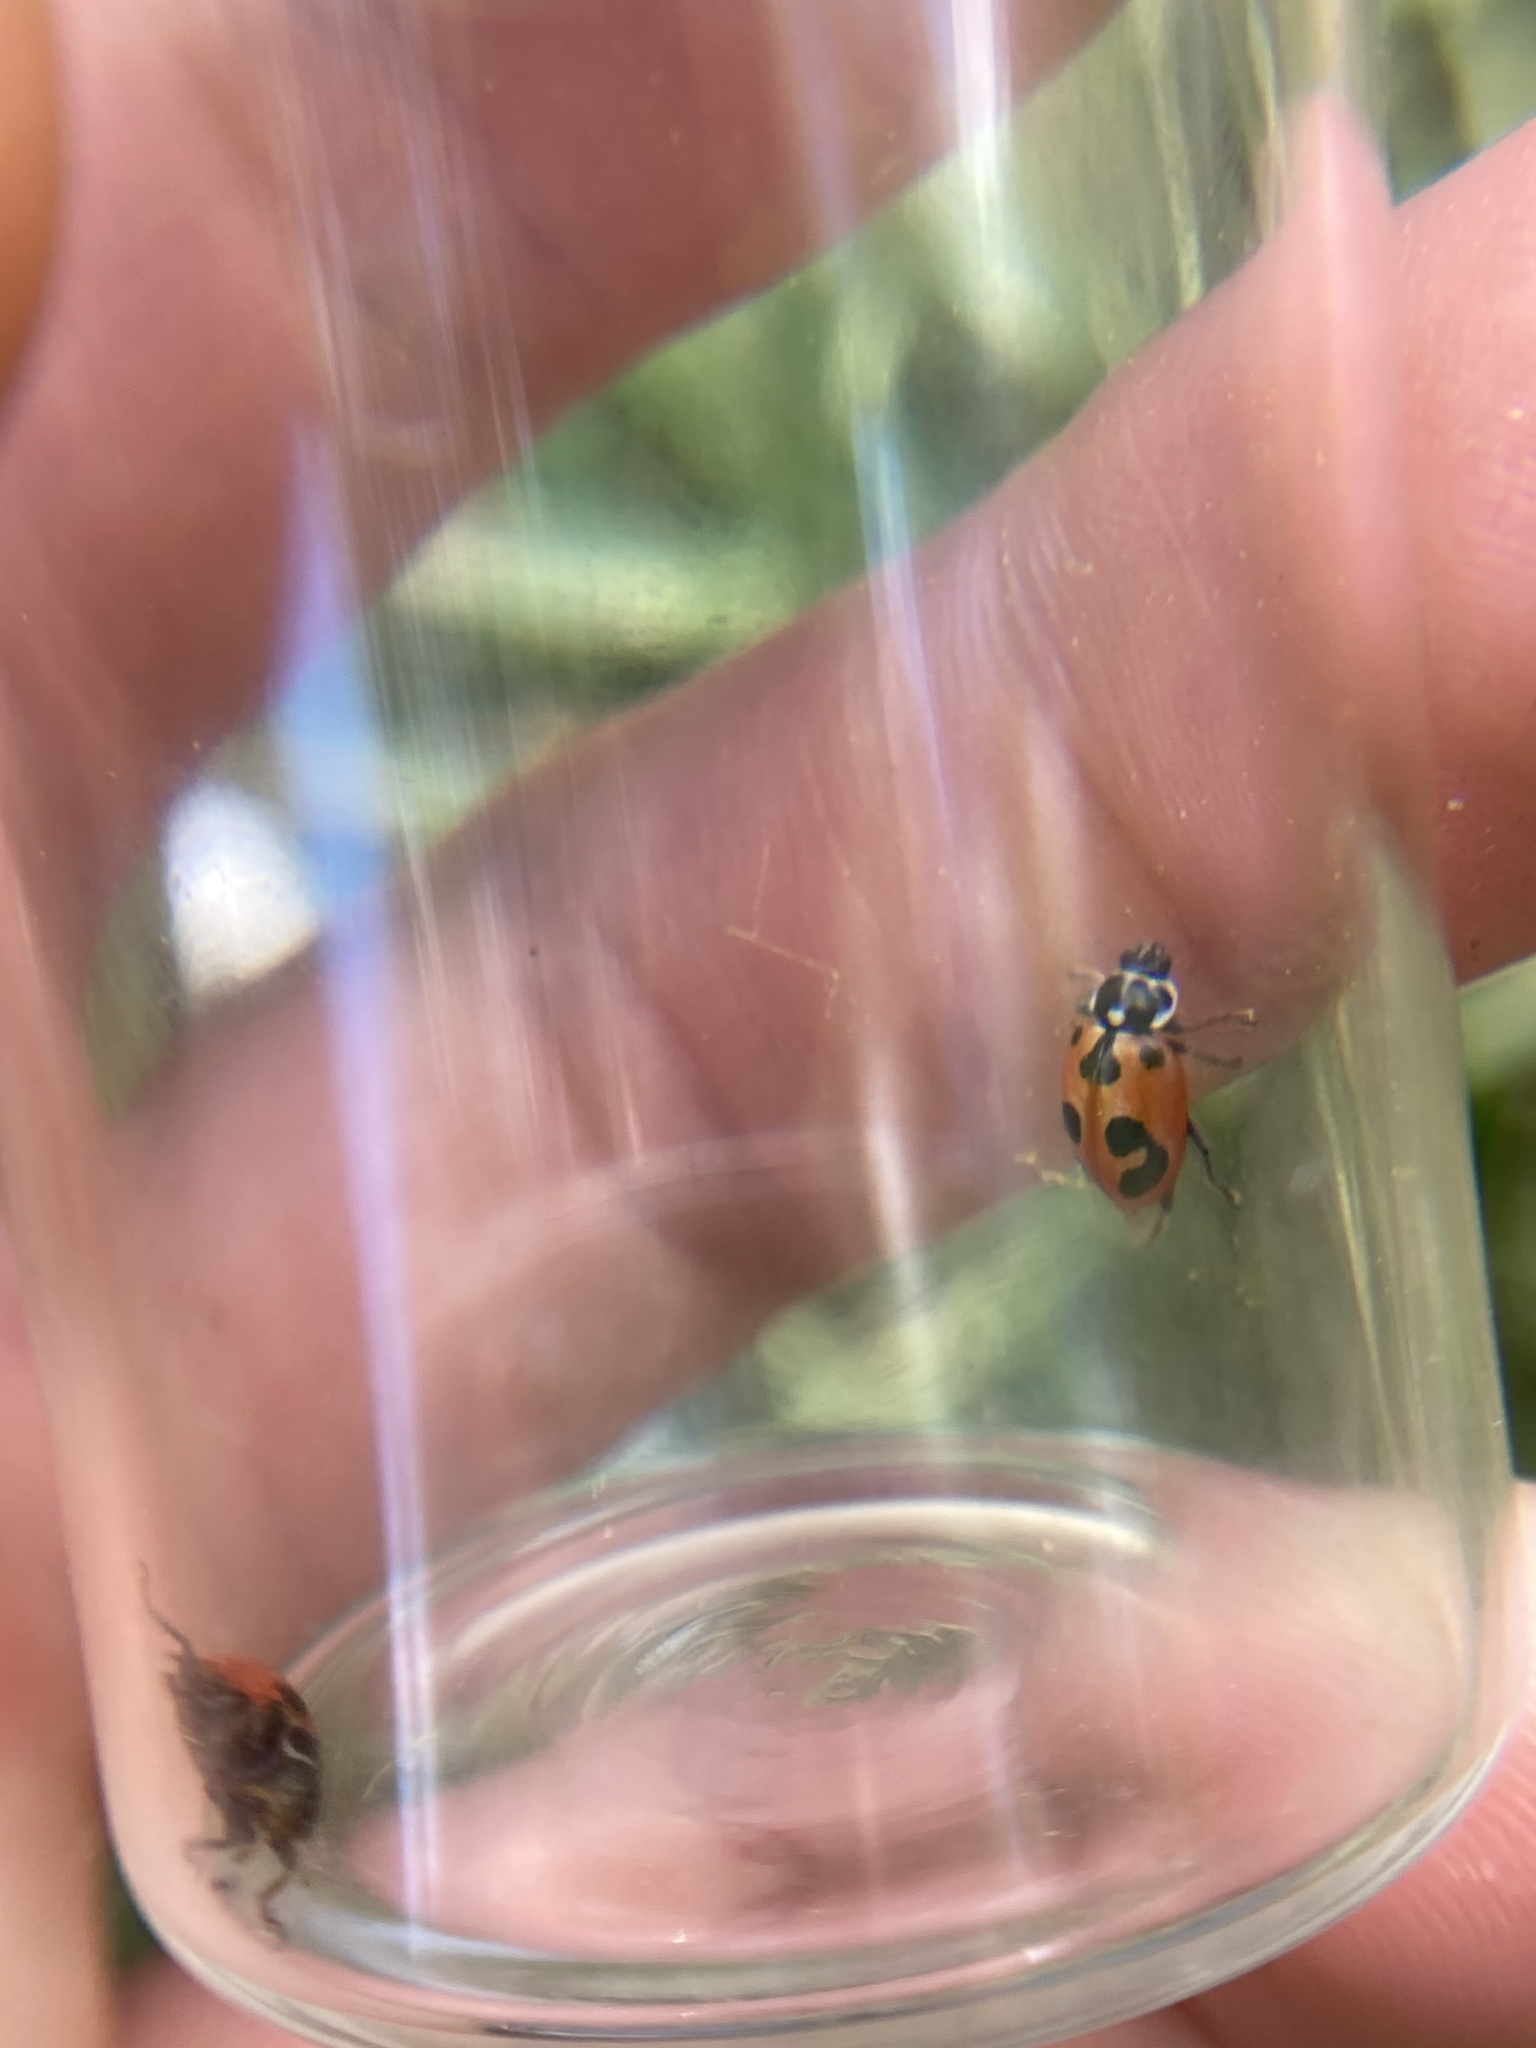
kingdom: Animalia
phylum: Arthropoda
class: Insecta
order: Coleoptera
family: Coccinellidae
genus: Hippodamia
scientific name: Hippodamia parenthesis
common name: Parenthesis lady beetle
